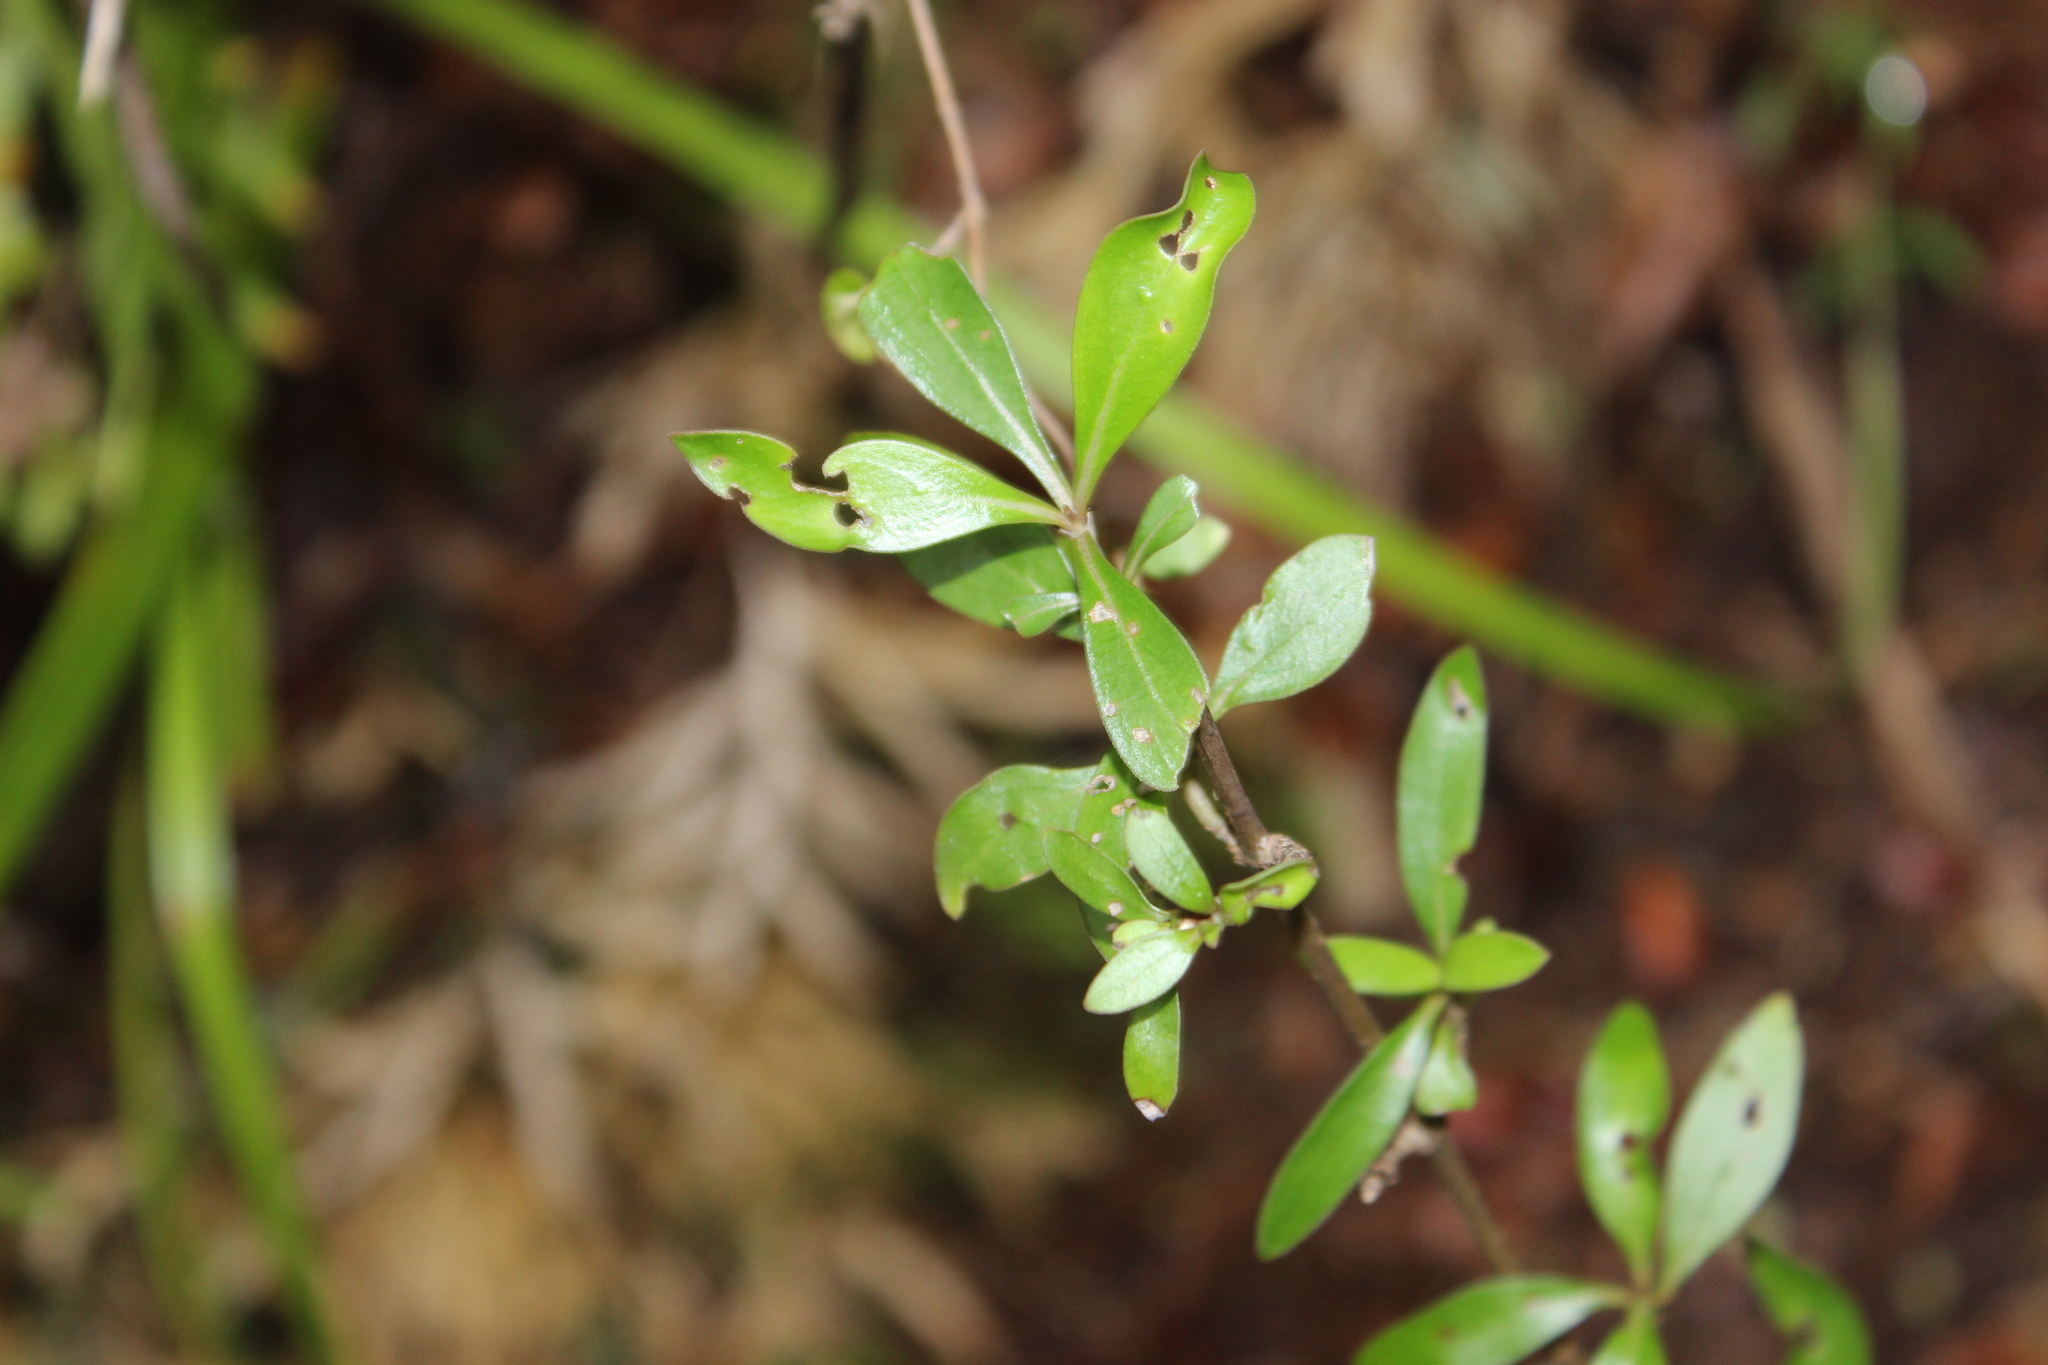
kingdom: Plantae
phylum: Tracheophyta
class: Magnoliopsida
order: Gentianales
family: Rubiaceae
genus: Coprosma
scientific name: Coprosma cunninghamii
